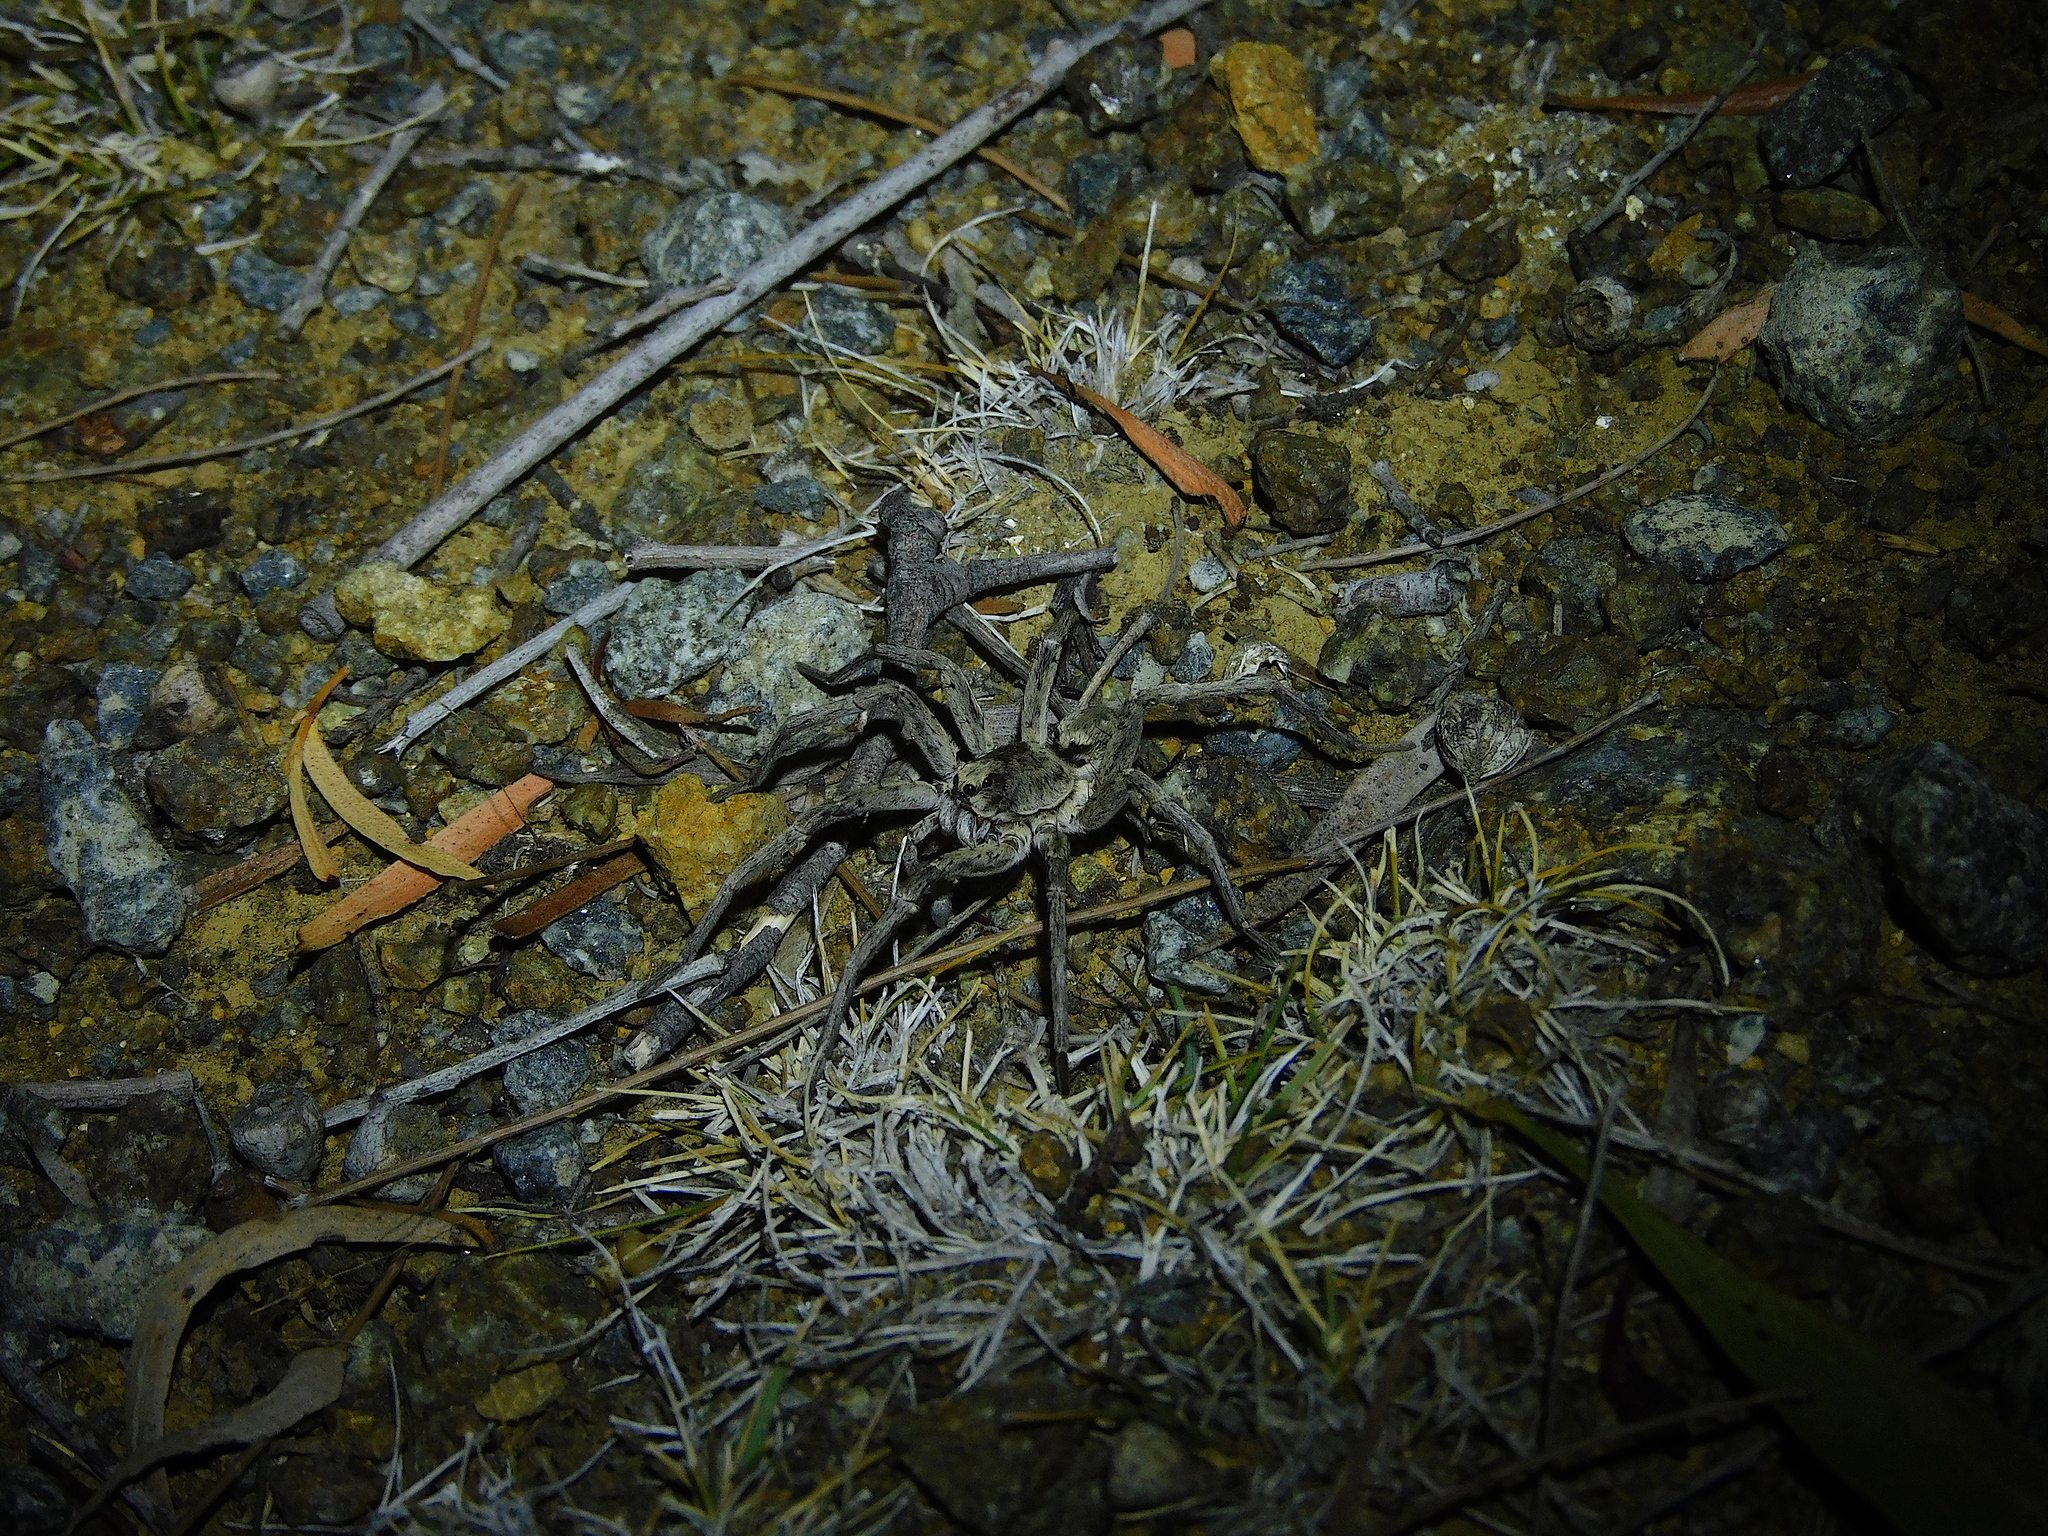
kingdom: Animalia
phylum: Arthropoda
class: Arachnida
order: Araneae
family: Lycosidae
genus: Portacosa
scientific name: Portacosa cinerea
